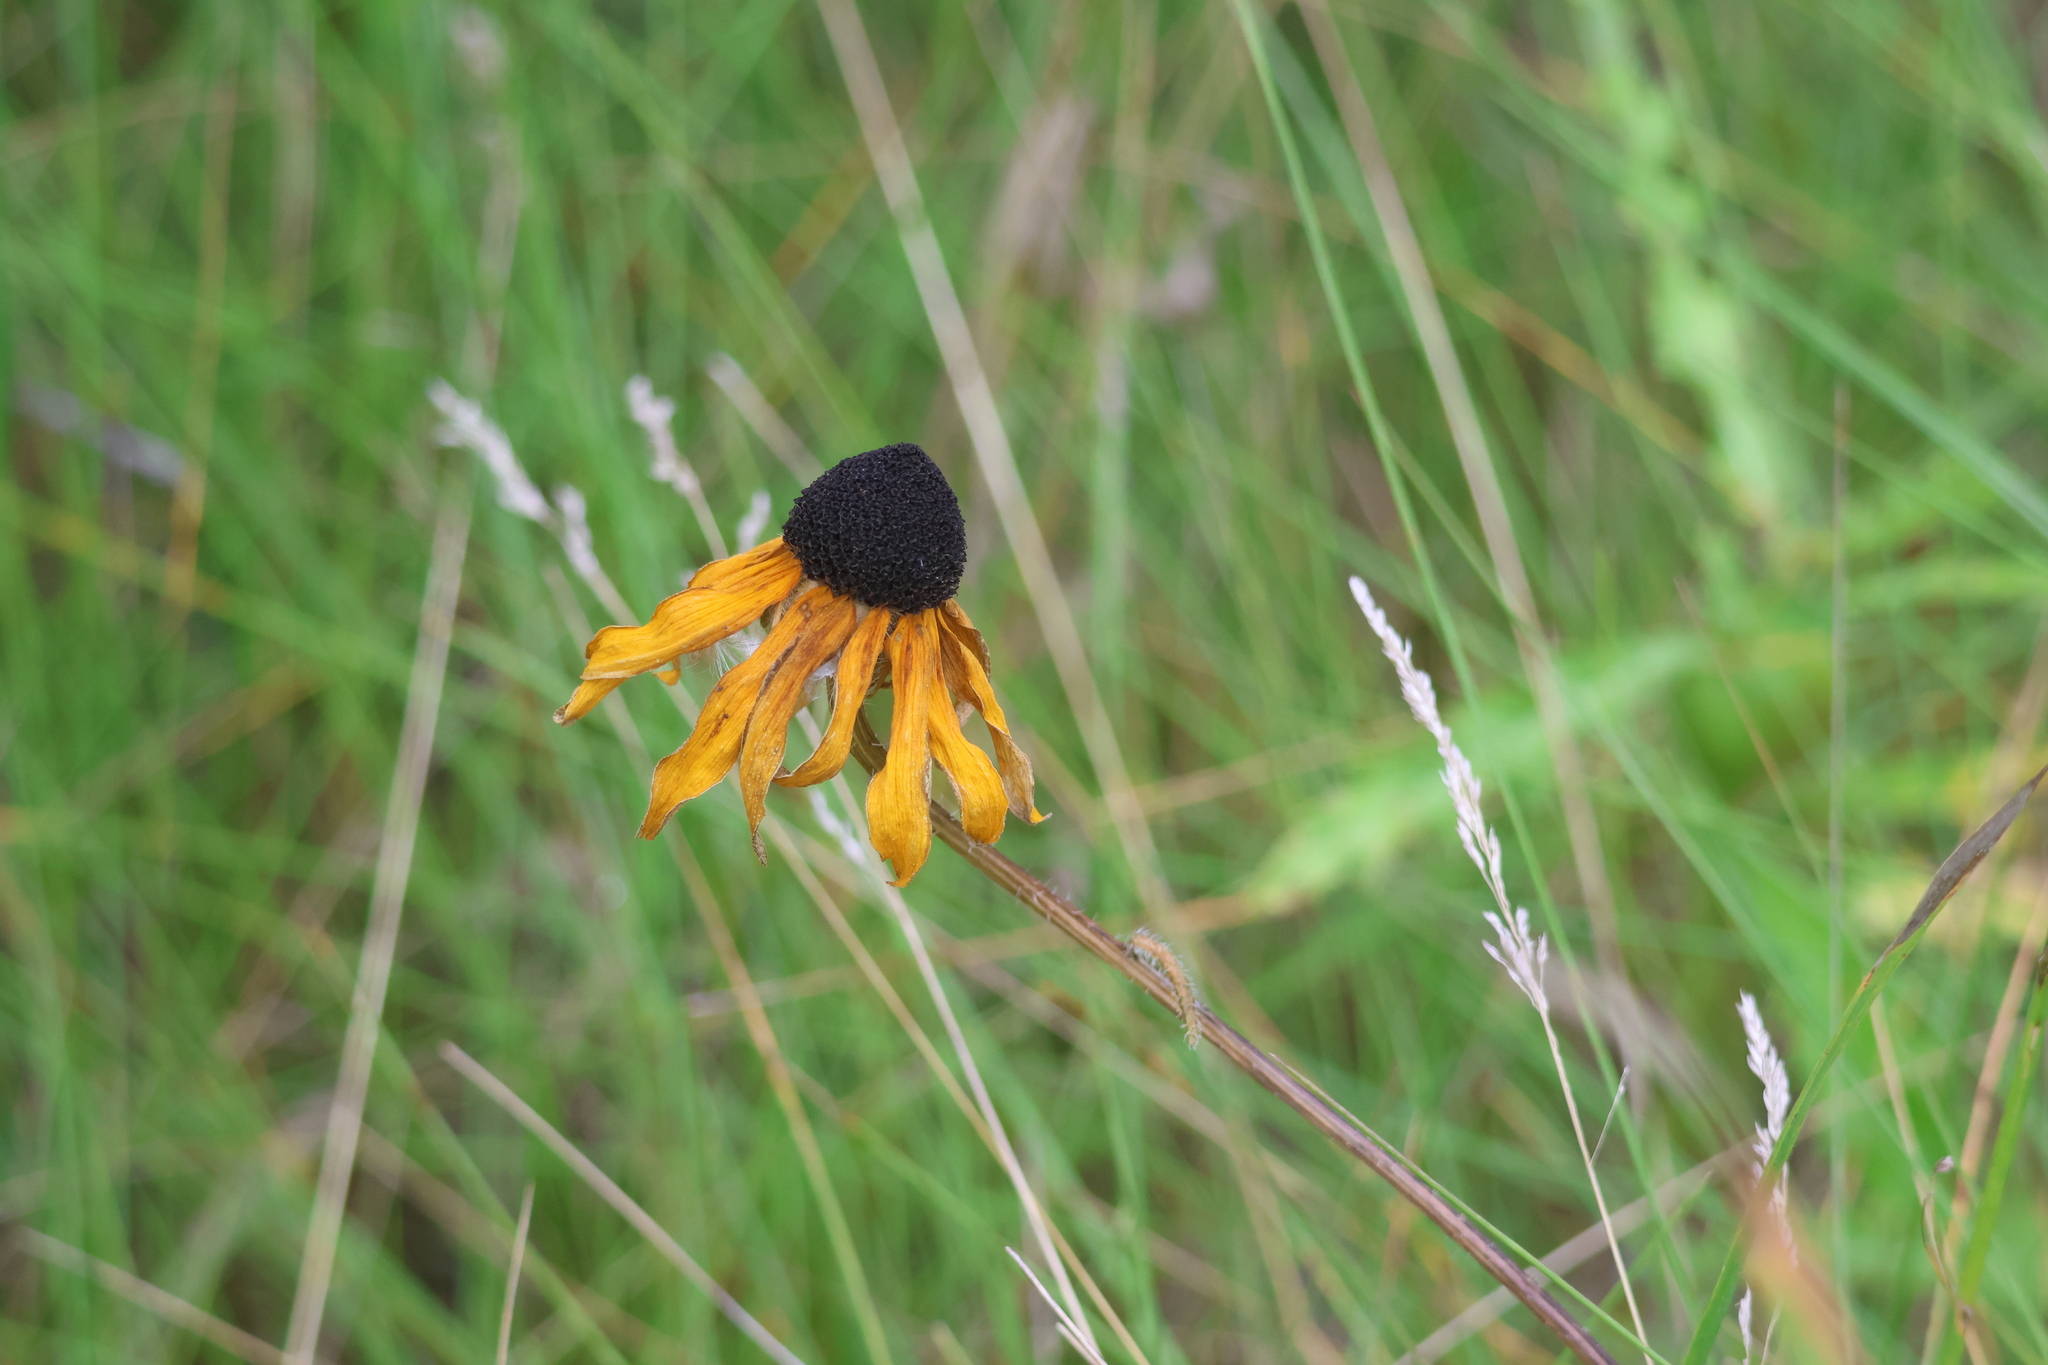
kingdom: Plantae
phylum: Tracheophyta
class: Magnoliopsida
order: Asterales
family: Asteraceae
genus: Rudbeckia
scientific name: Rudbeckia hirta
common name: Black-eyed-susan
